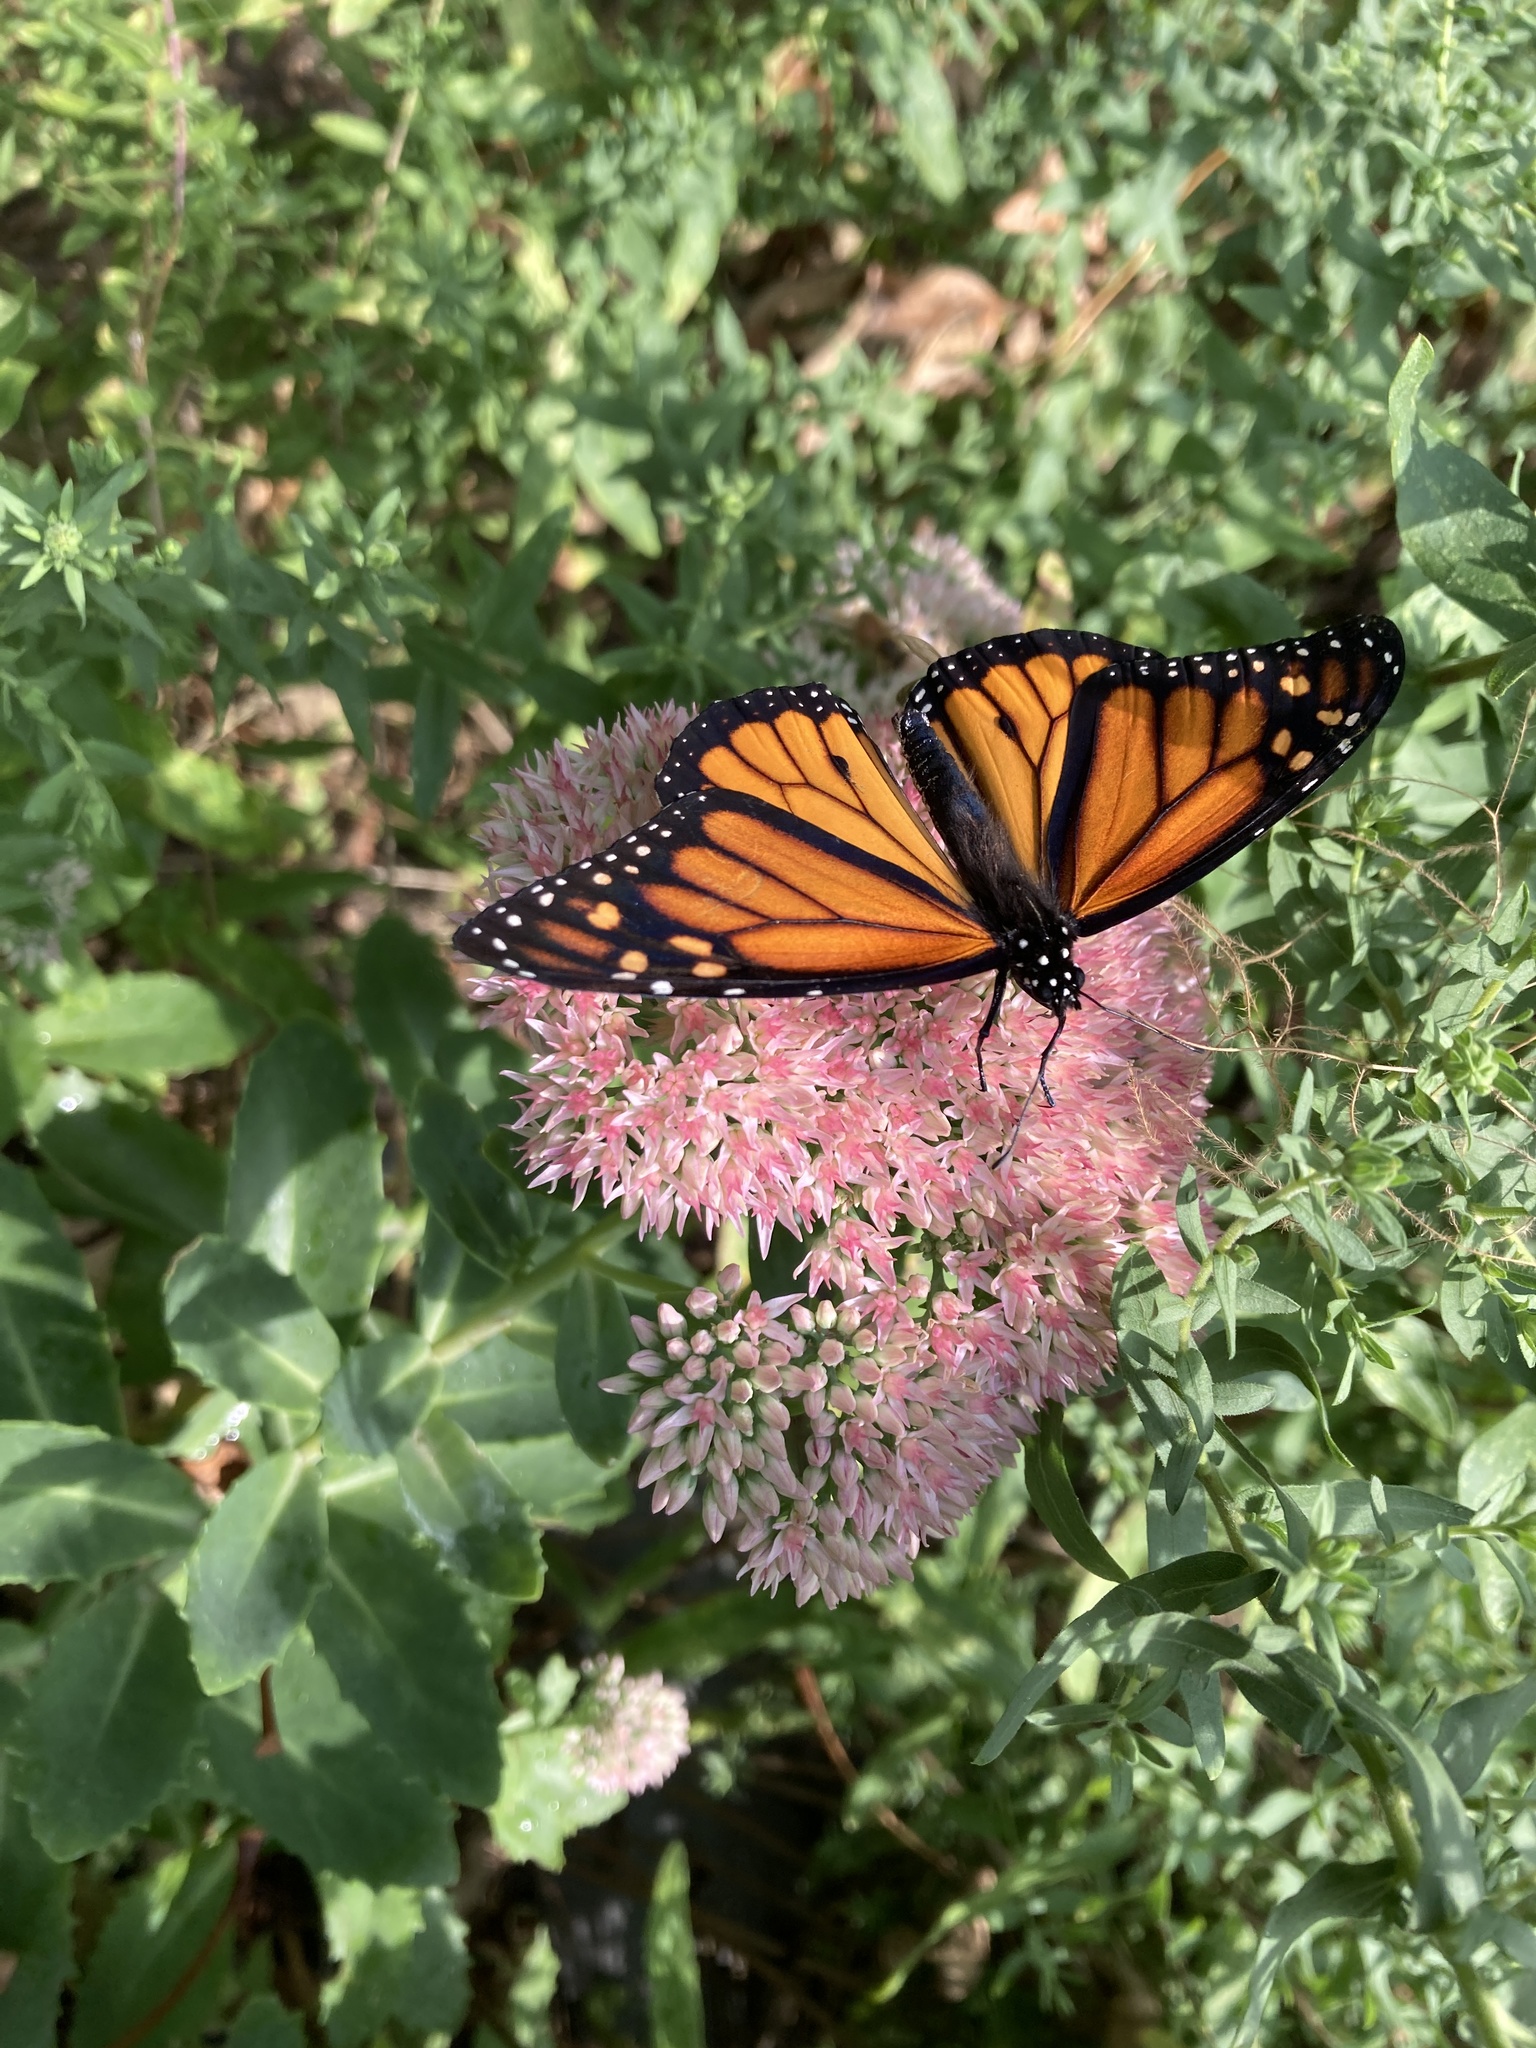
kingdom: Animalia
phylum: Arthropoda
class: Insecta
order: Lepidoptera
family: Nymphalidae
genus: Danaus
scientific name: Danaus plexippus
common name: Monarch
